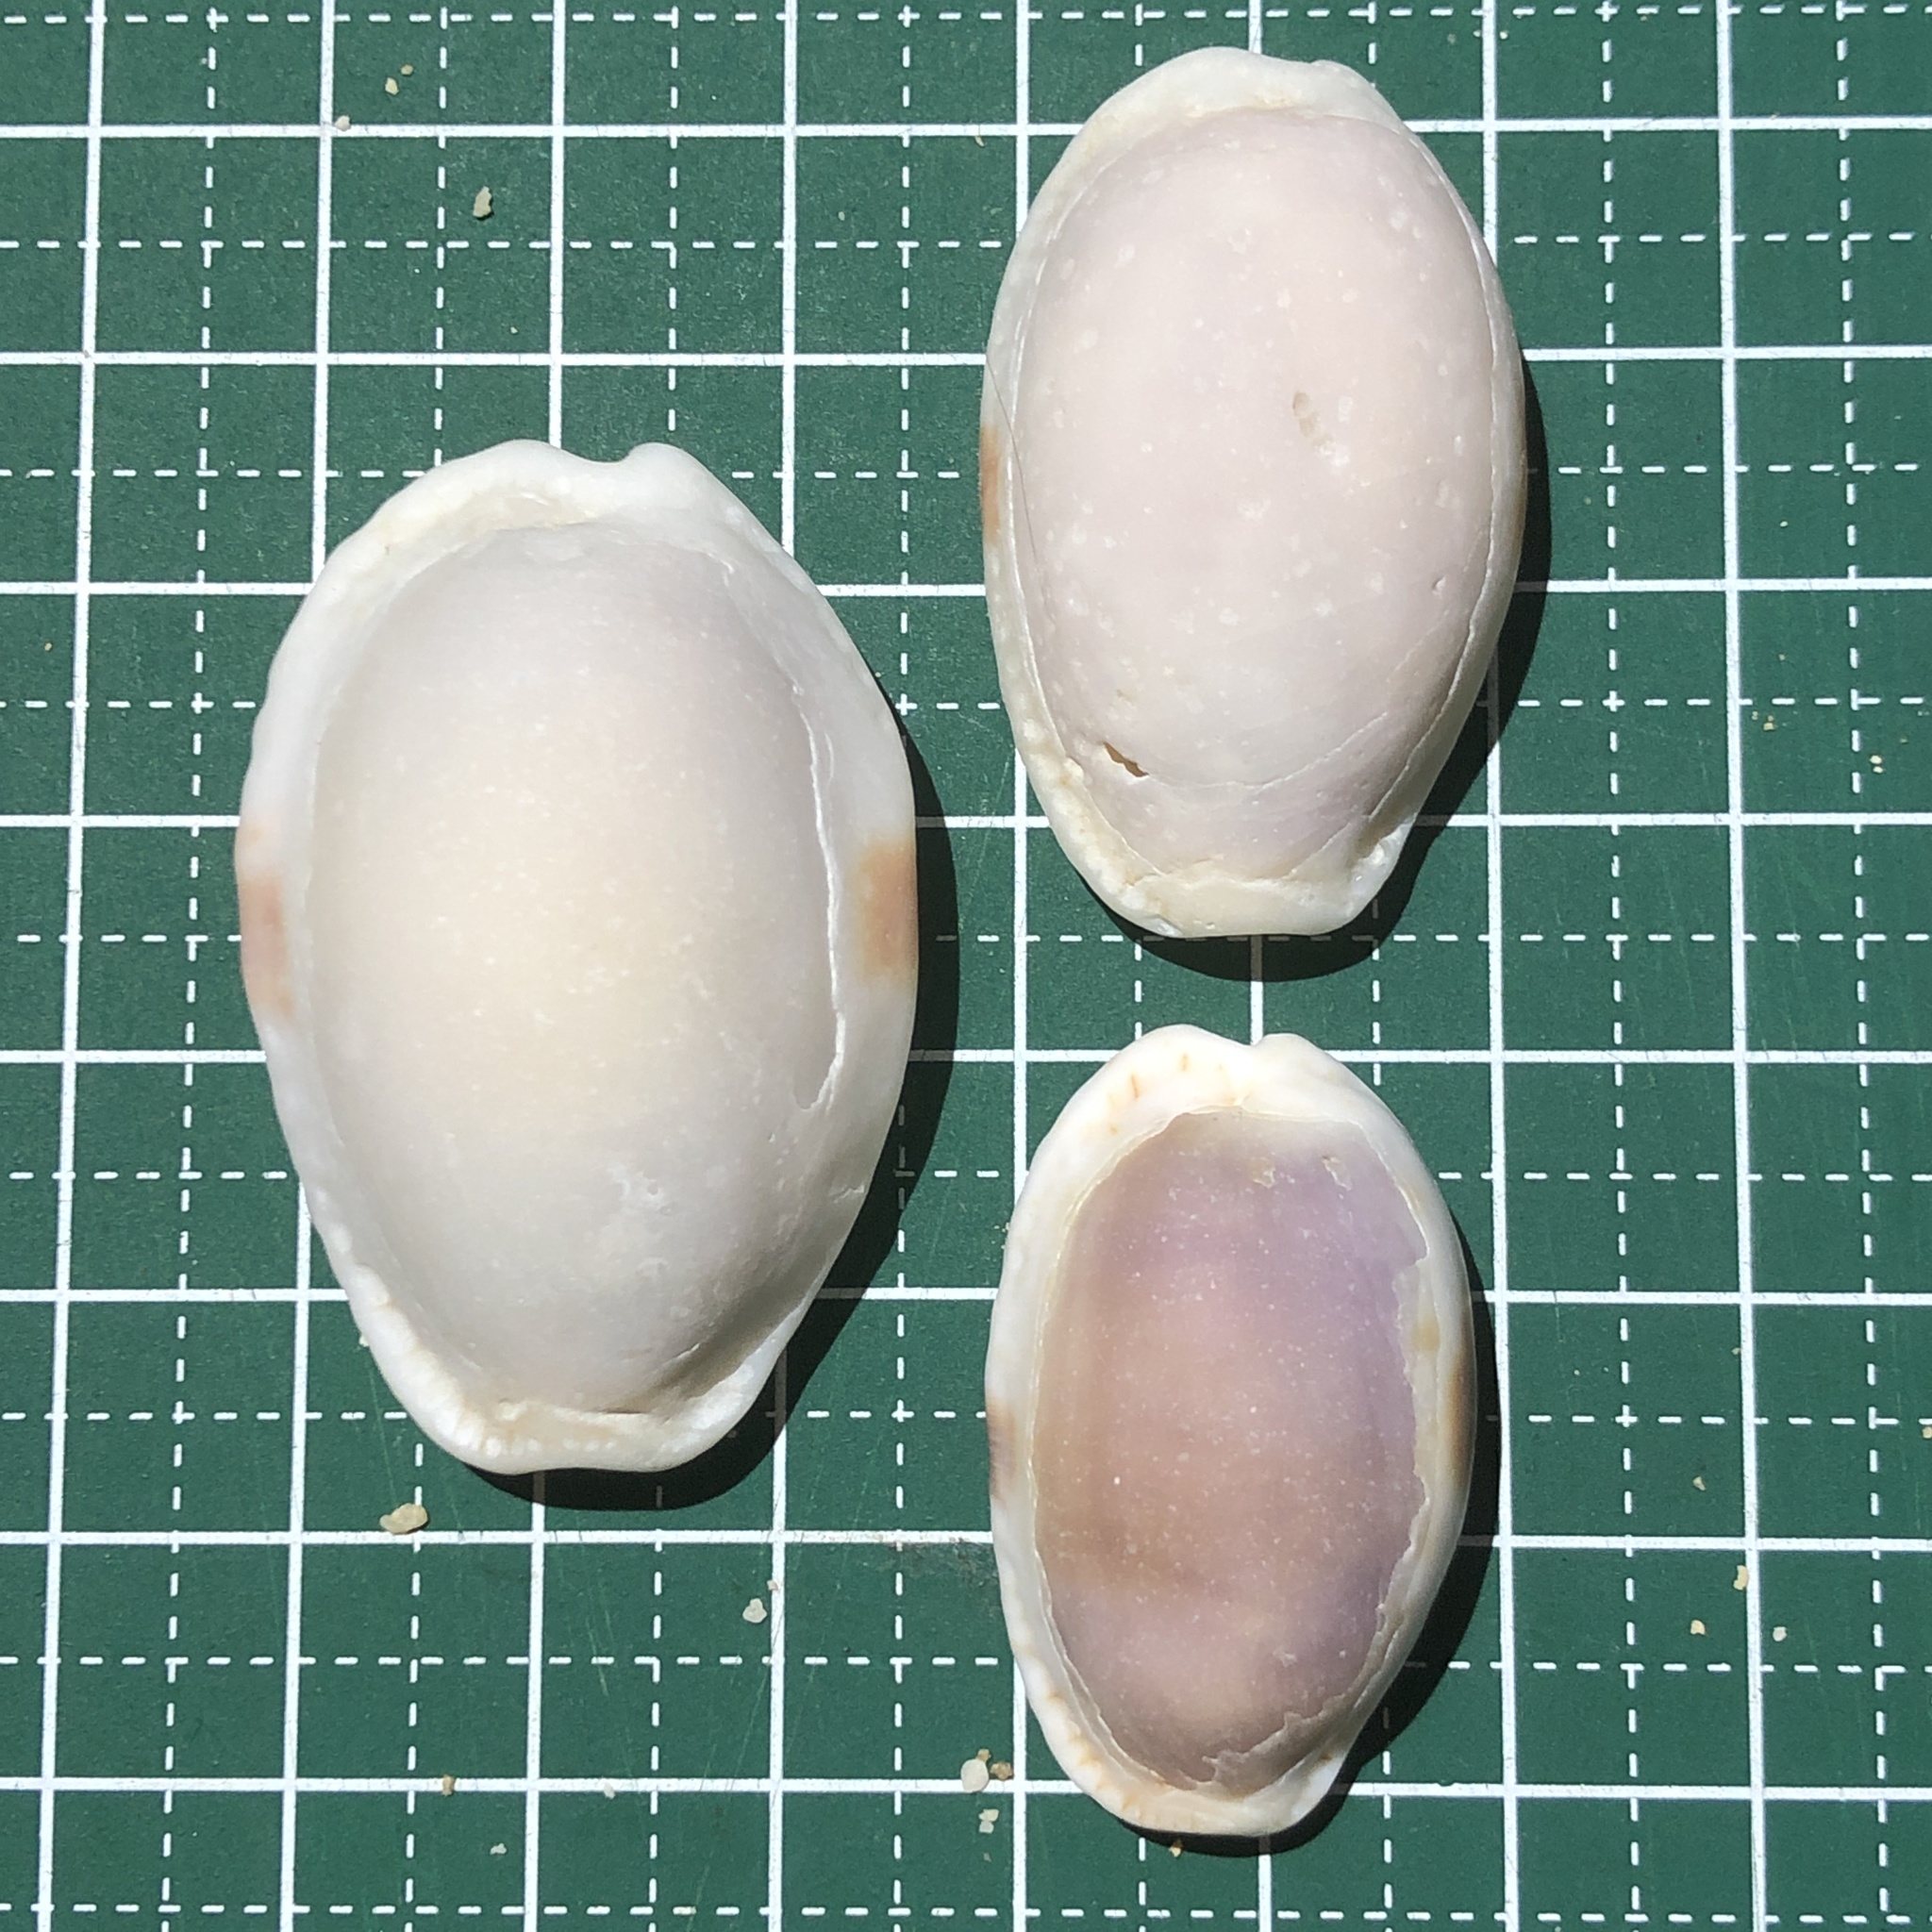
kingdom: Animalia
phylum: Mollusca
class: Gastropoda
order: Littorinimorpha
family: Cypraeidae
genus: Naria
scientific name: Naria erosa
